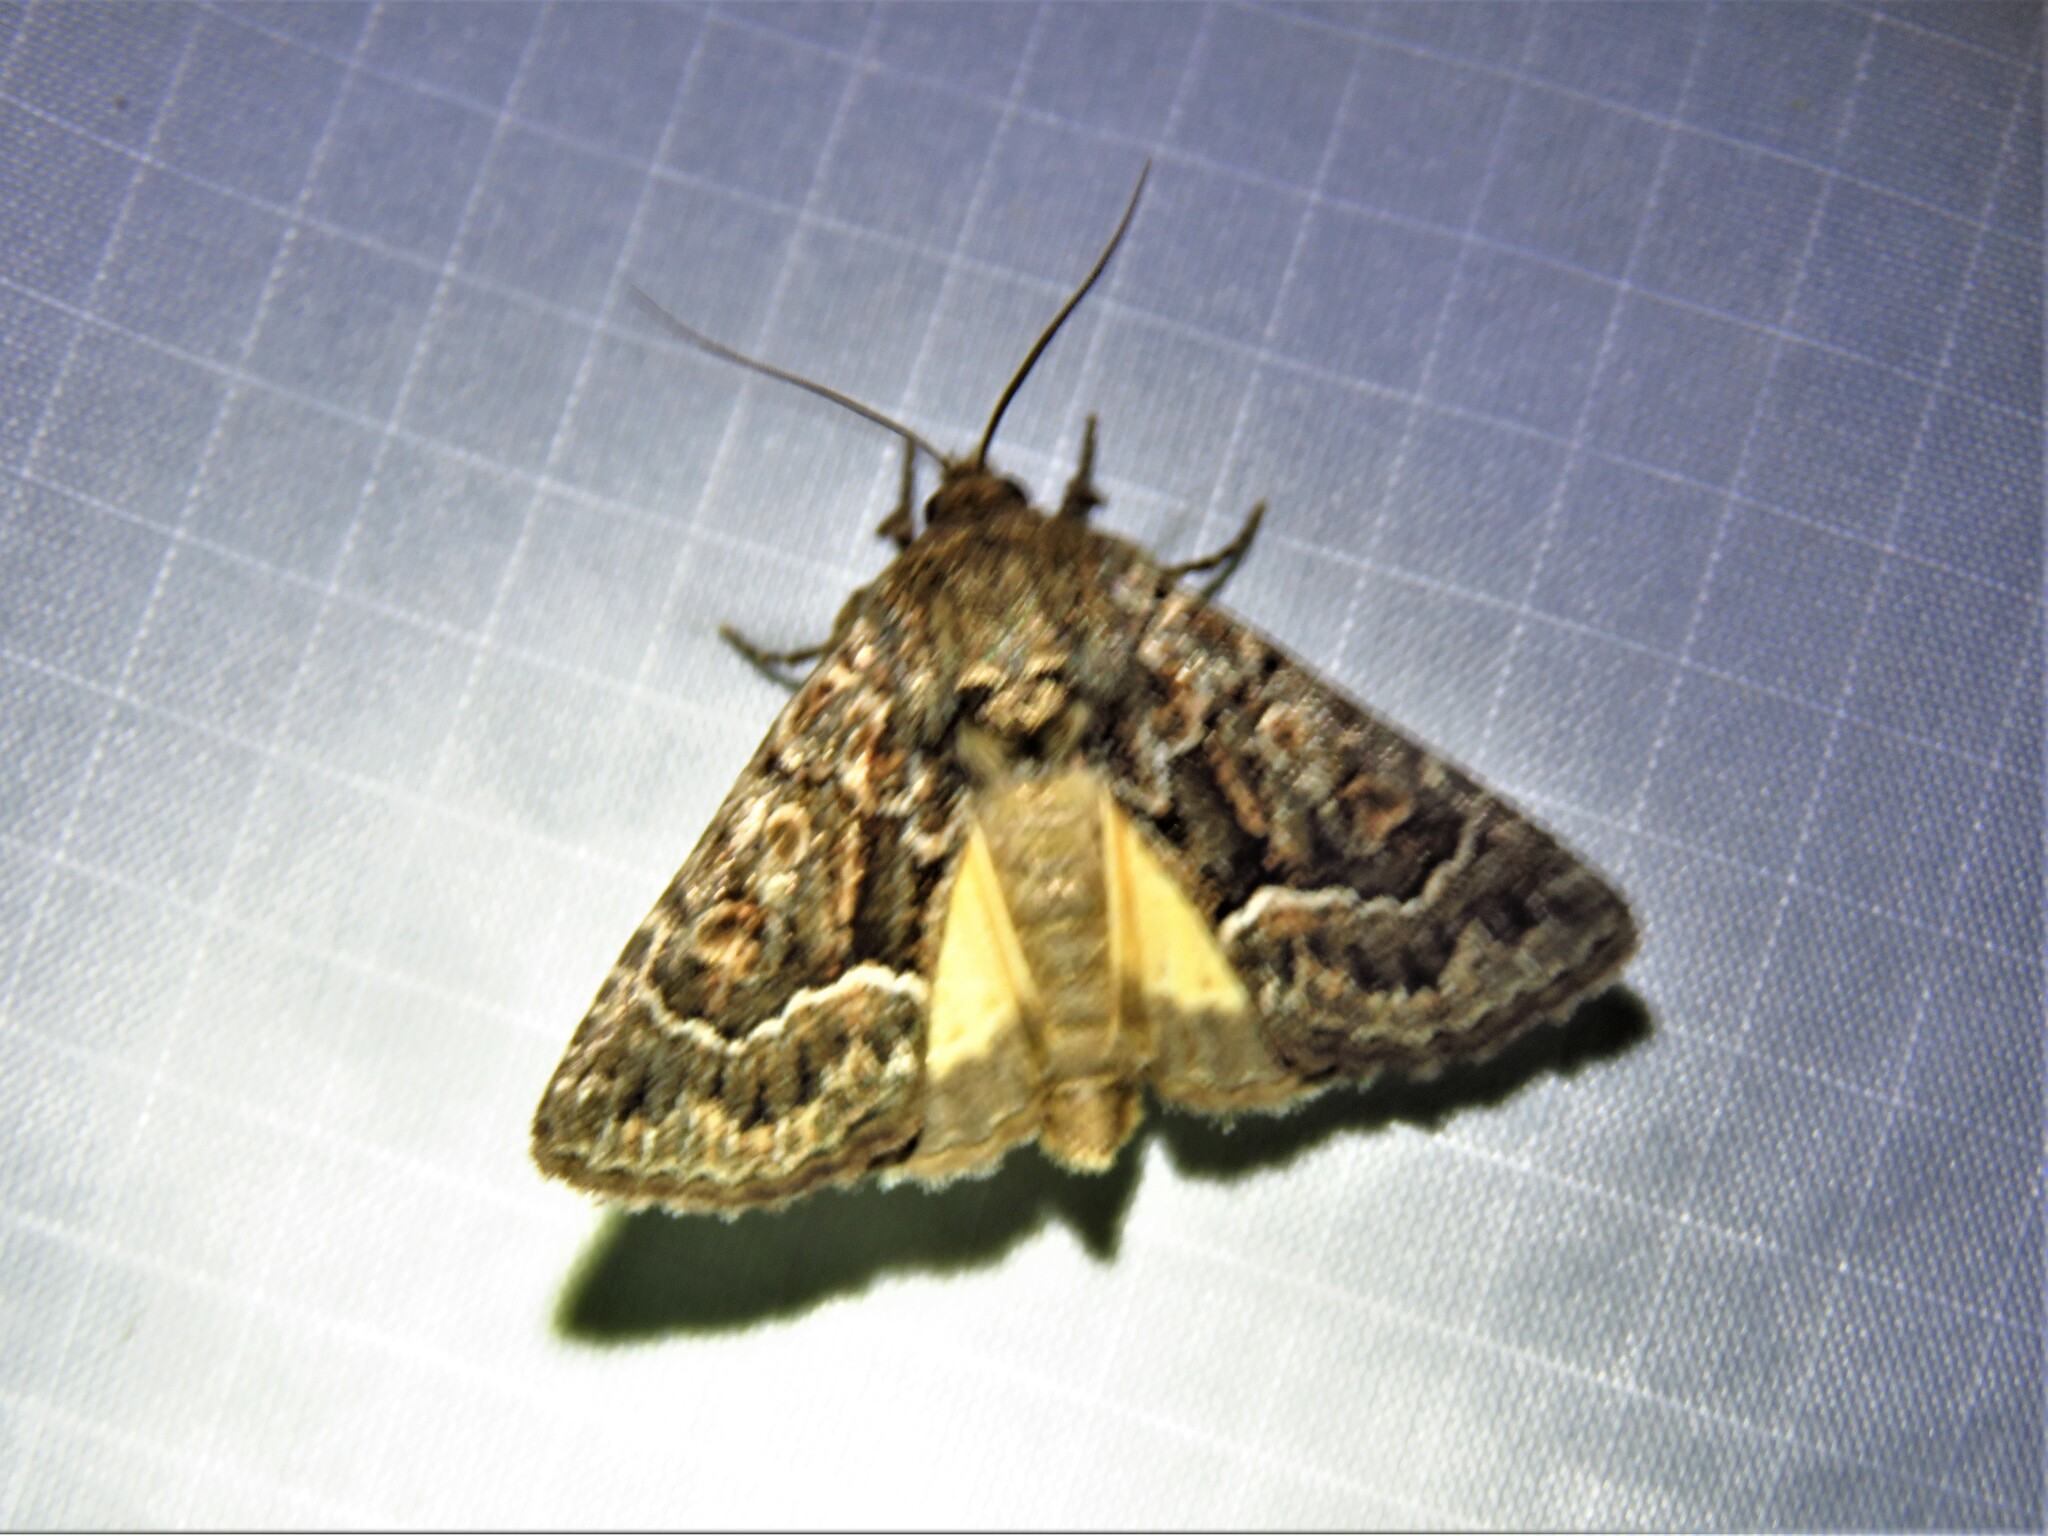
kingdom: Animalia
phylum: Arthropoda
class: Insecta
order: Lepidoptera
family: Noctuidae
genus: Thalpophila
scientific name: Thalpophila matura
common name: Straw underwing
